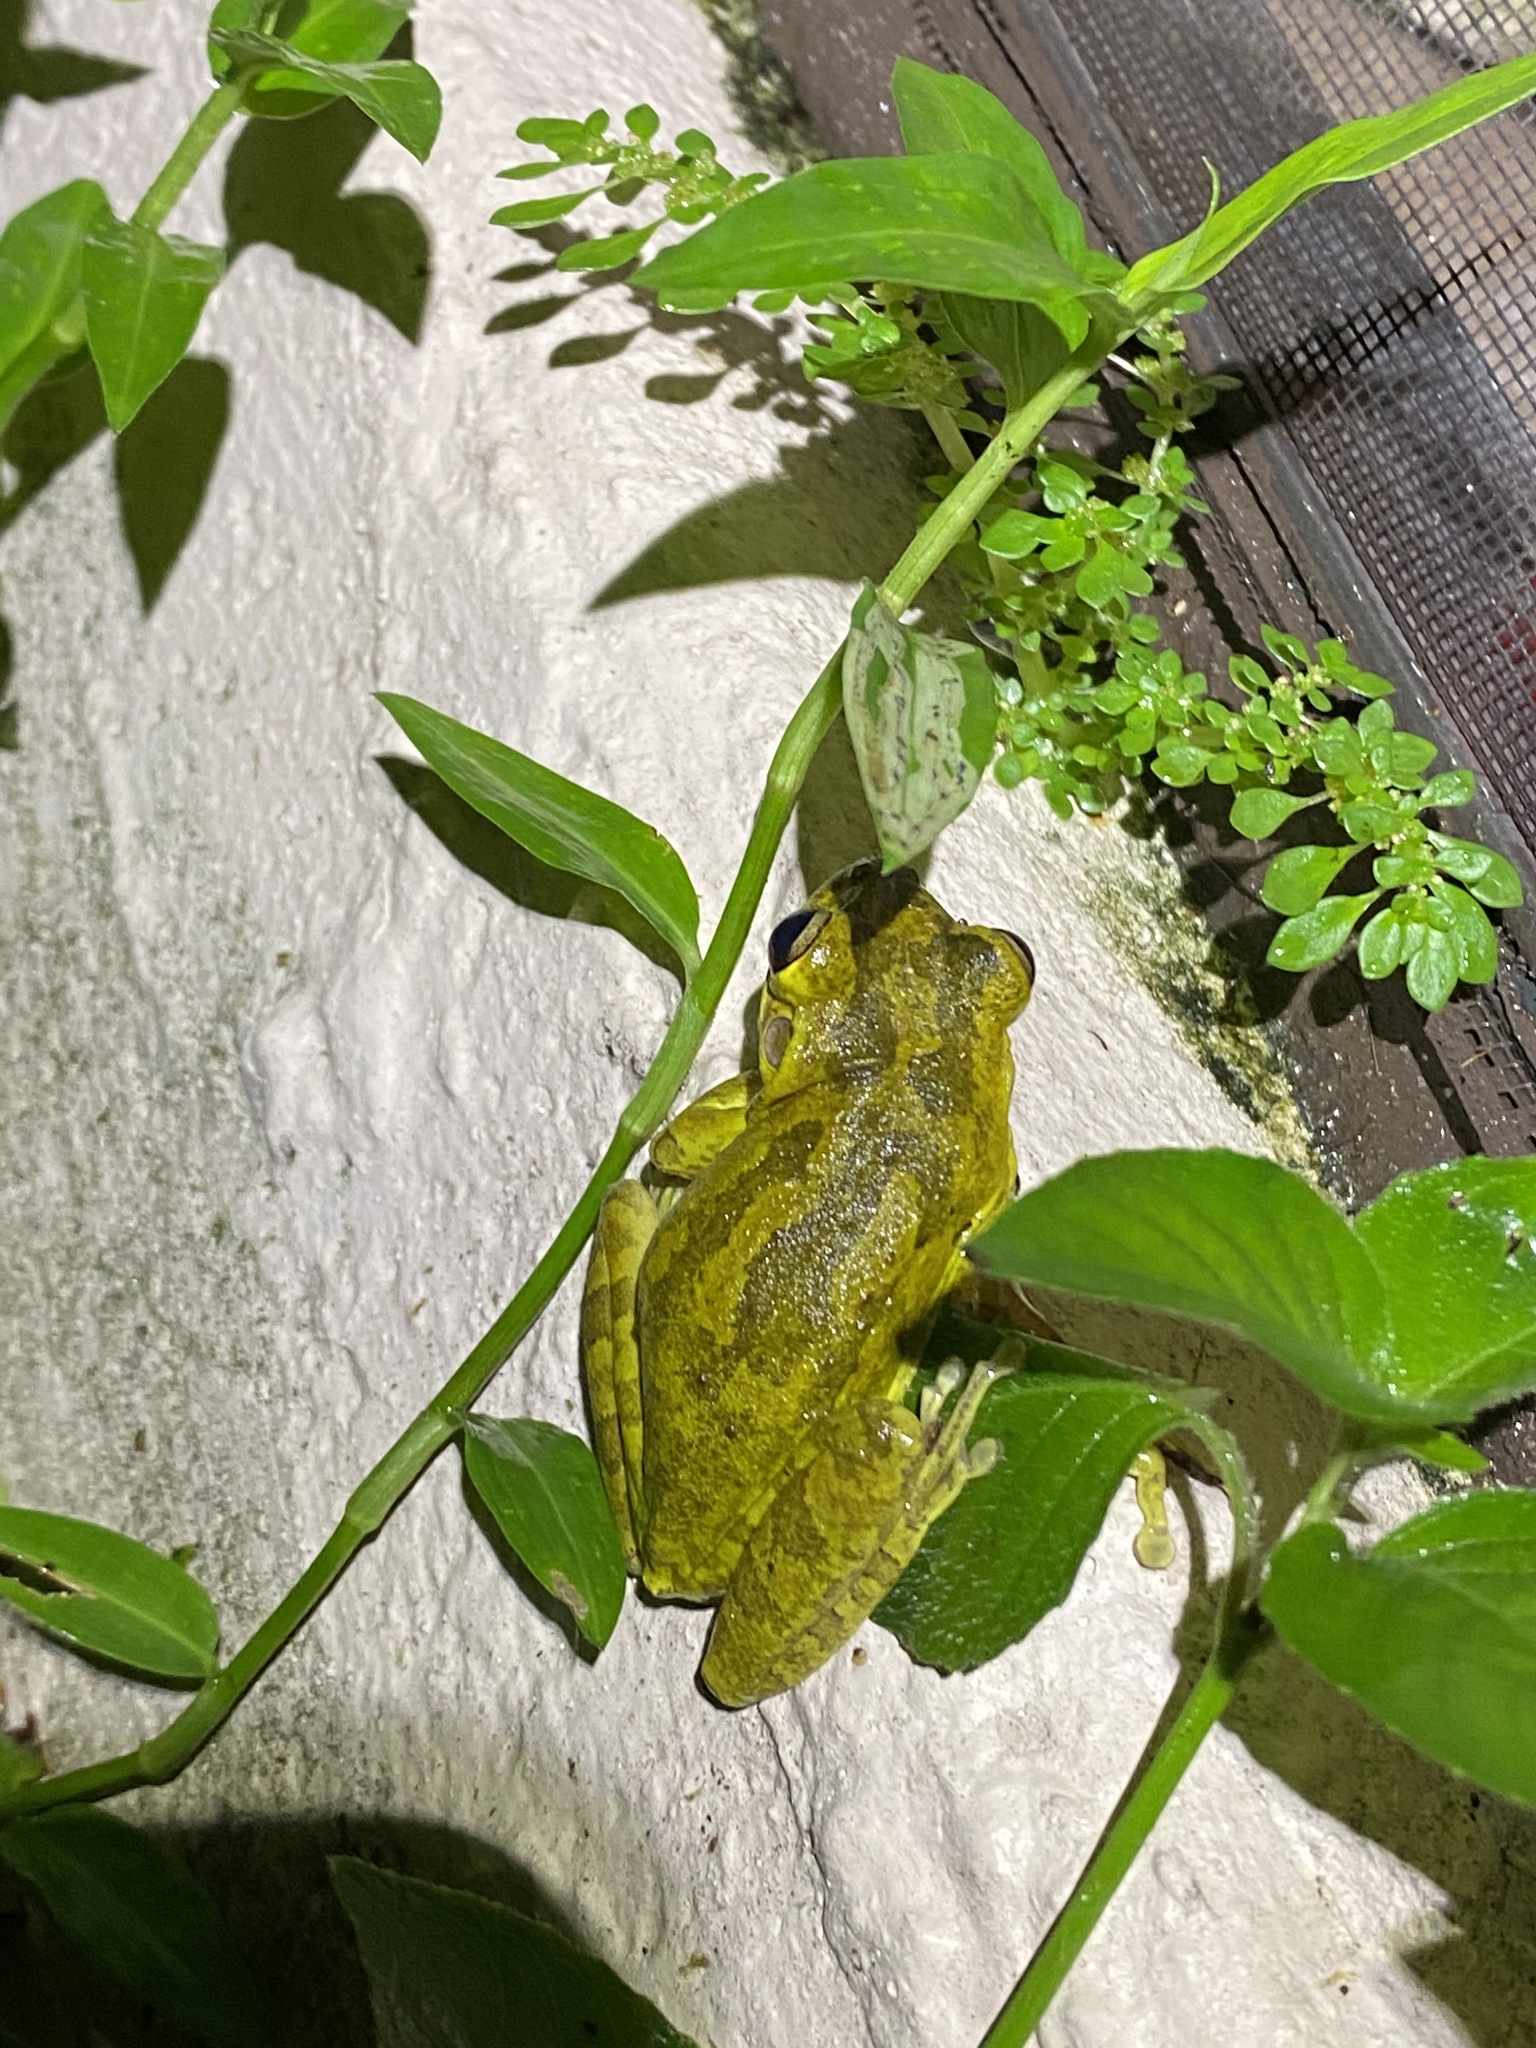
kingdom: Animalia
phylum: Chordata
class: Amphibia
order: Anura
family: Hylidae
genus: Osteopilus
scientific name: Osteopilus septentrionalis
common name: Cuban treefrog
